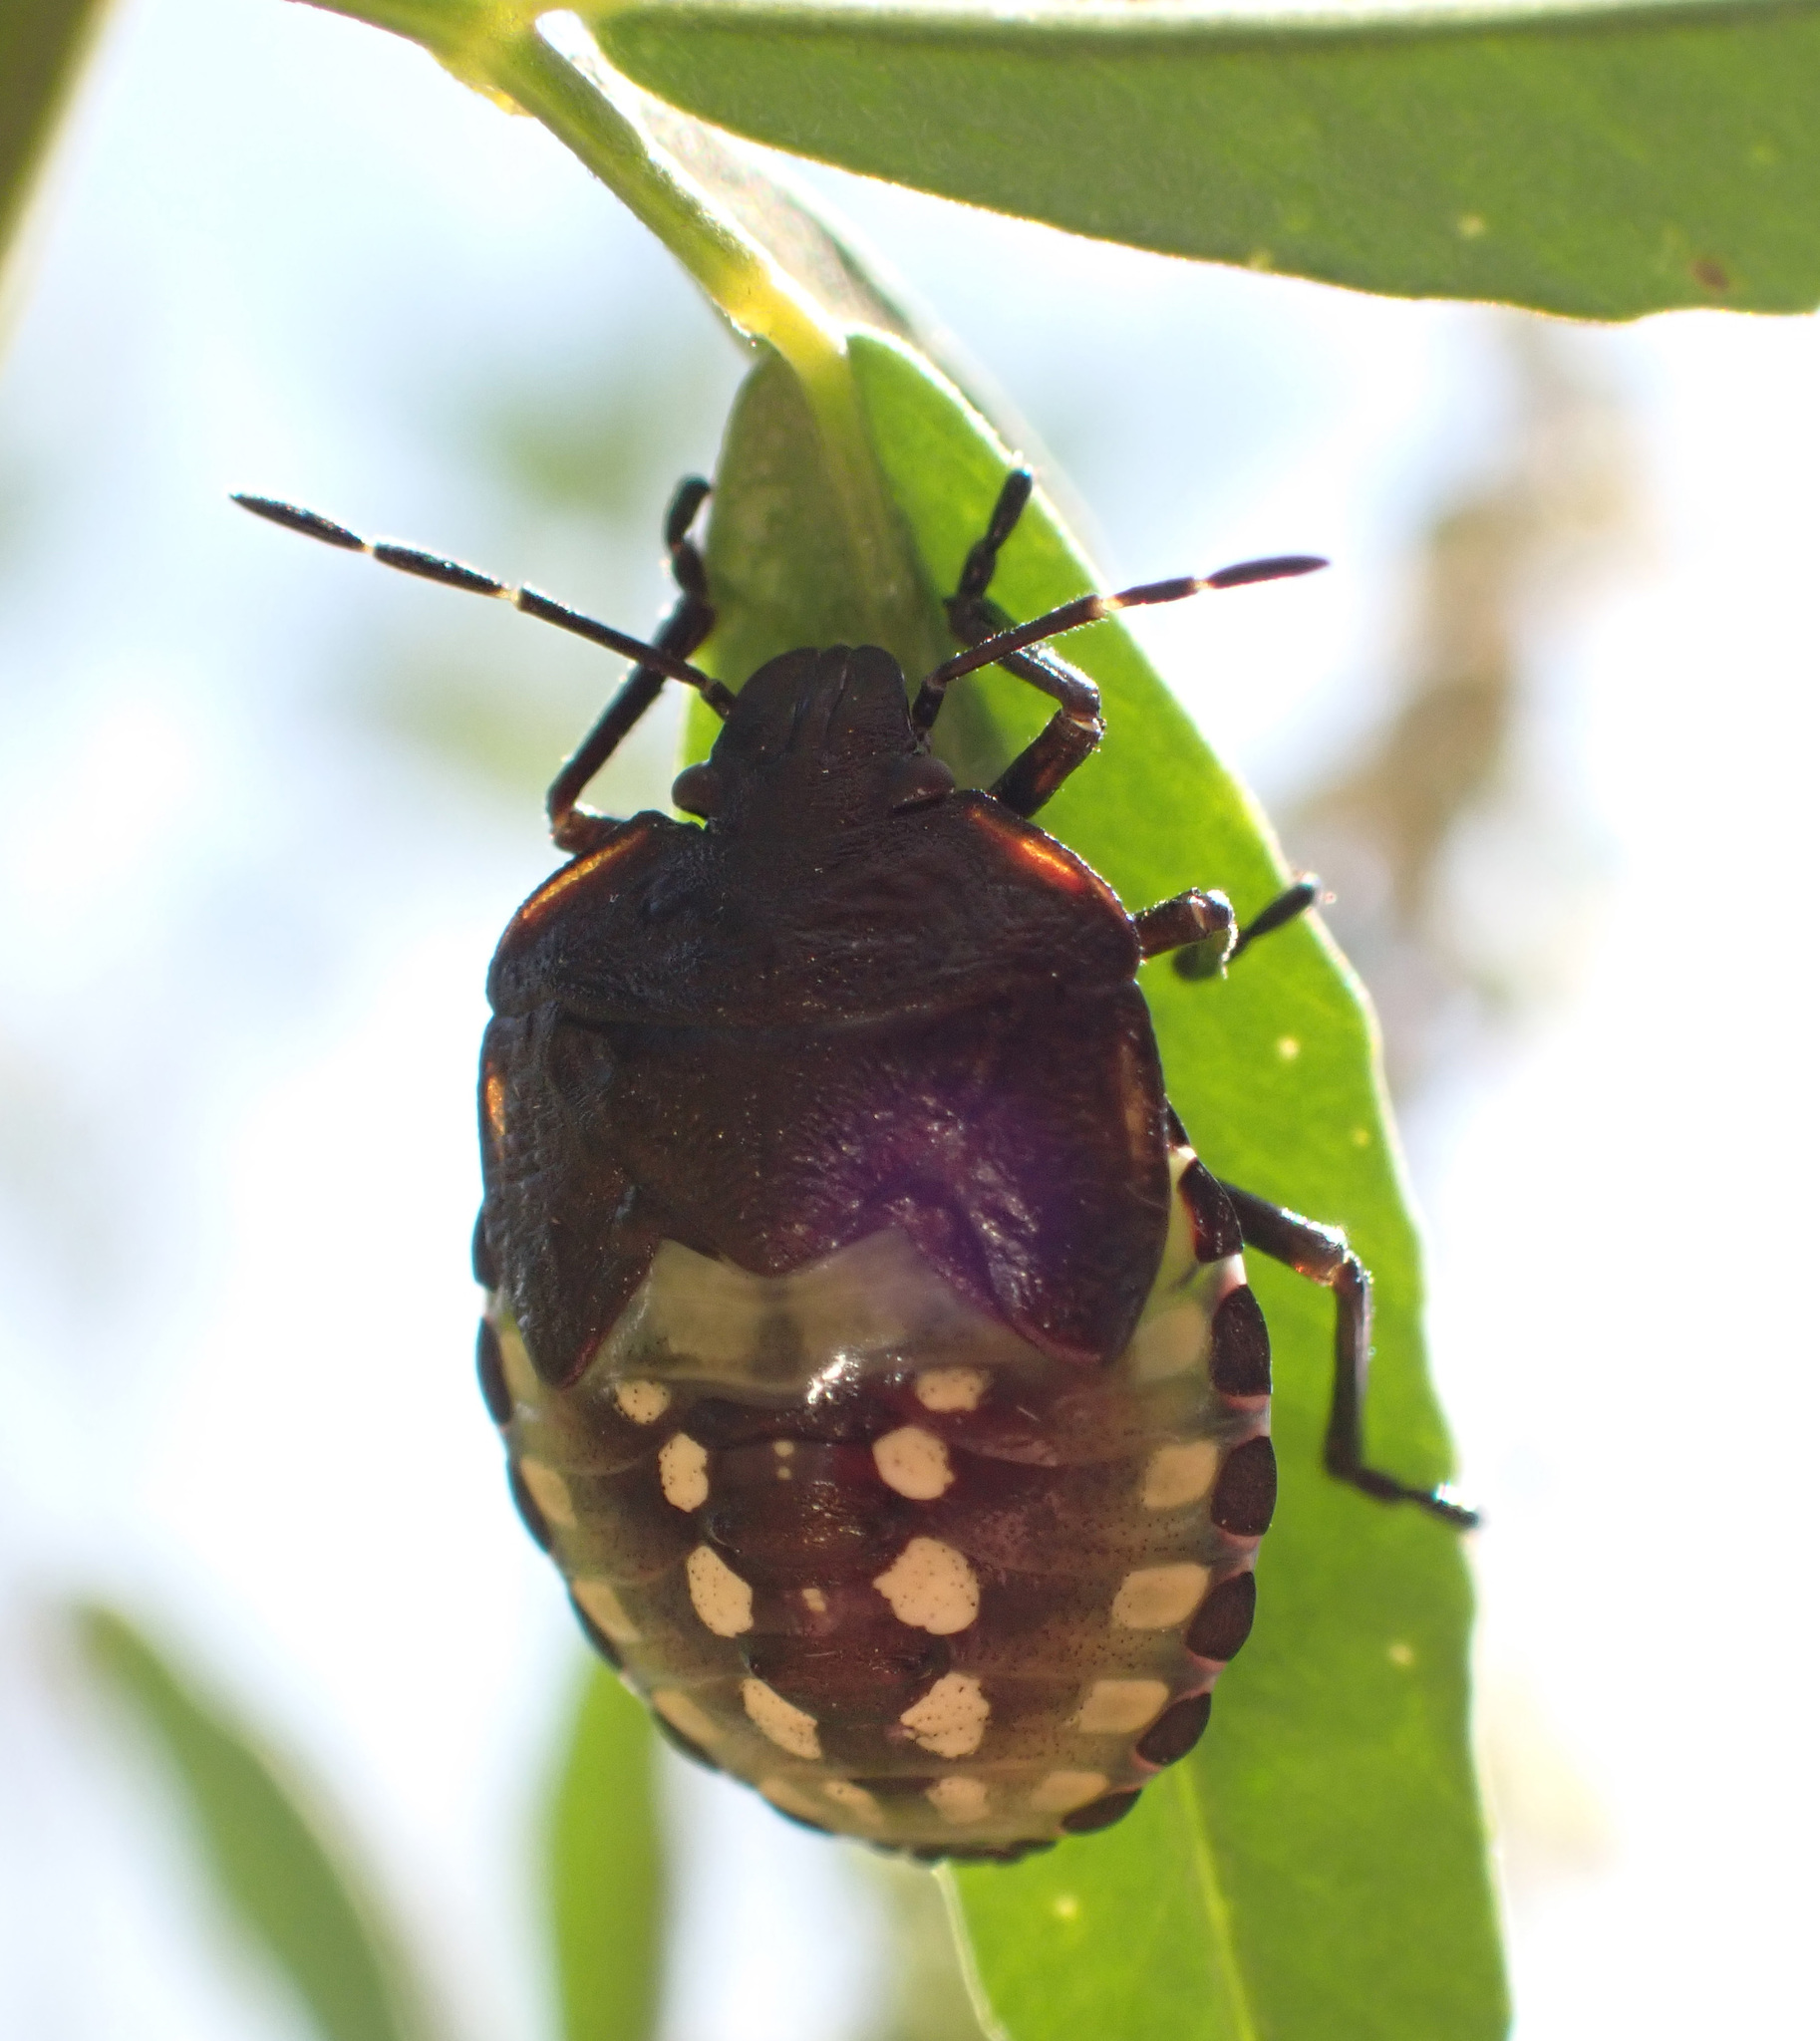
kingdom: Animalia
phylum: Arthropoda
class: Insecta
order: Hemiptera
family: Pentatomidae
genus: Nezara
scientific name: Nezara viridula
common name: Southern green stink bug
